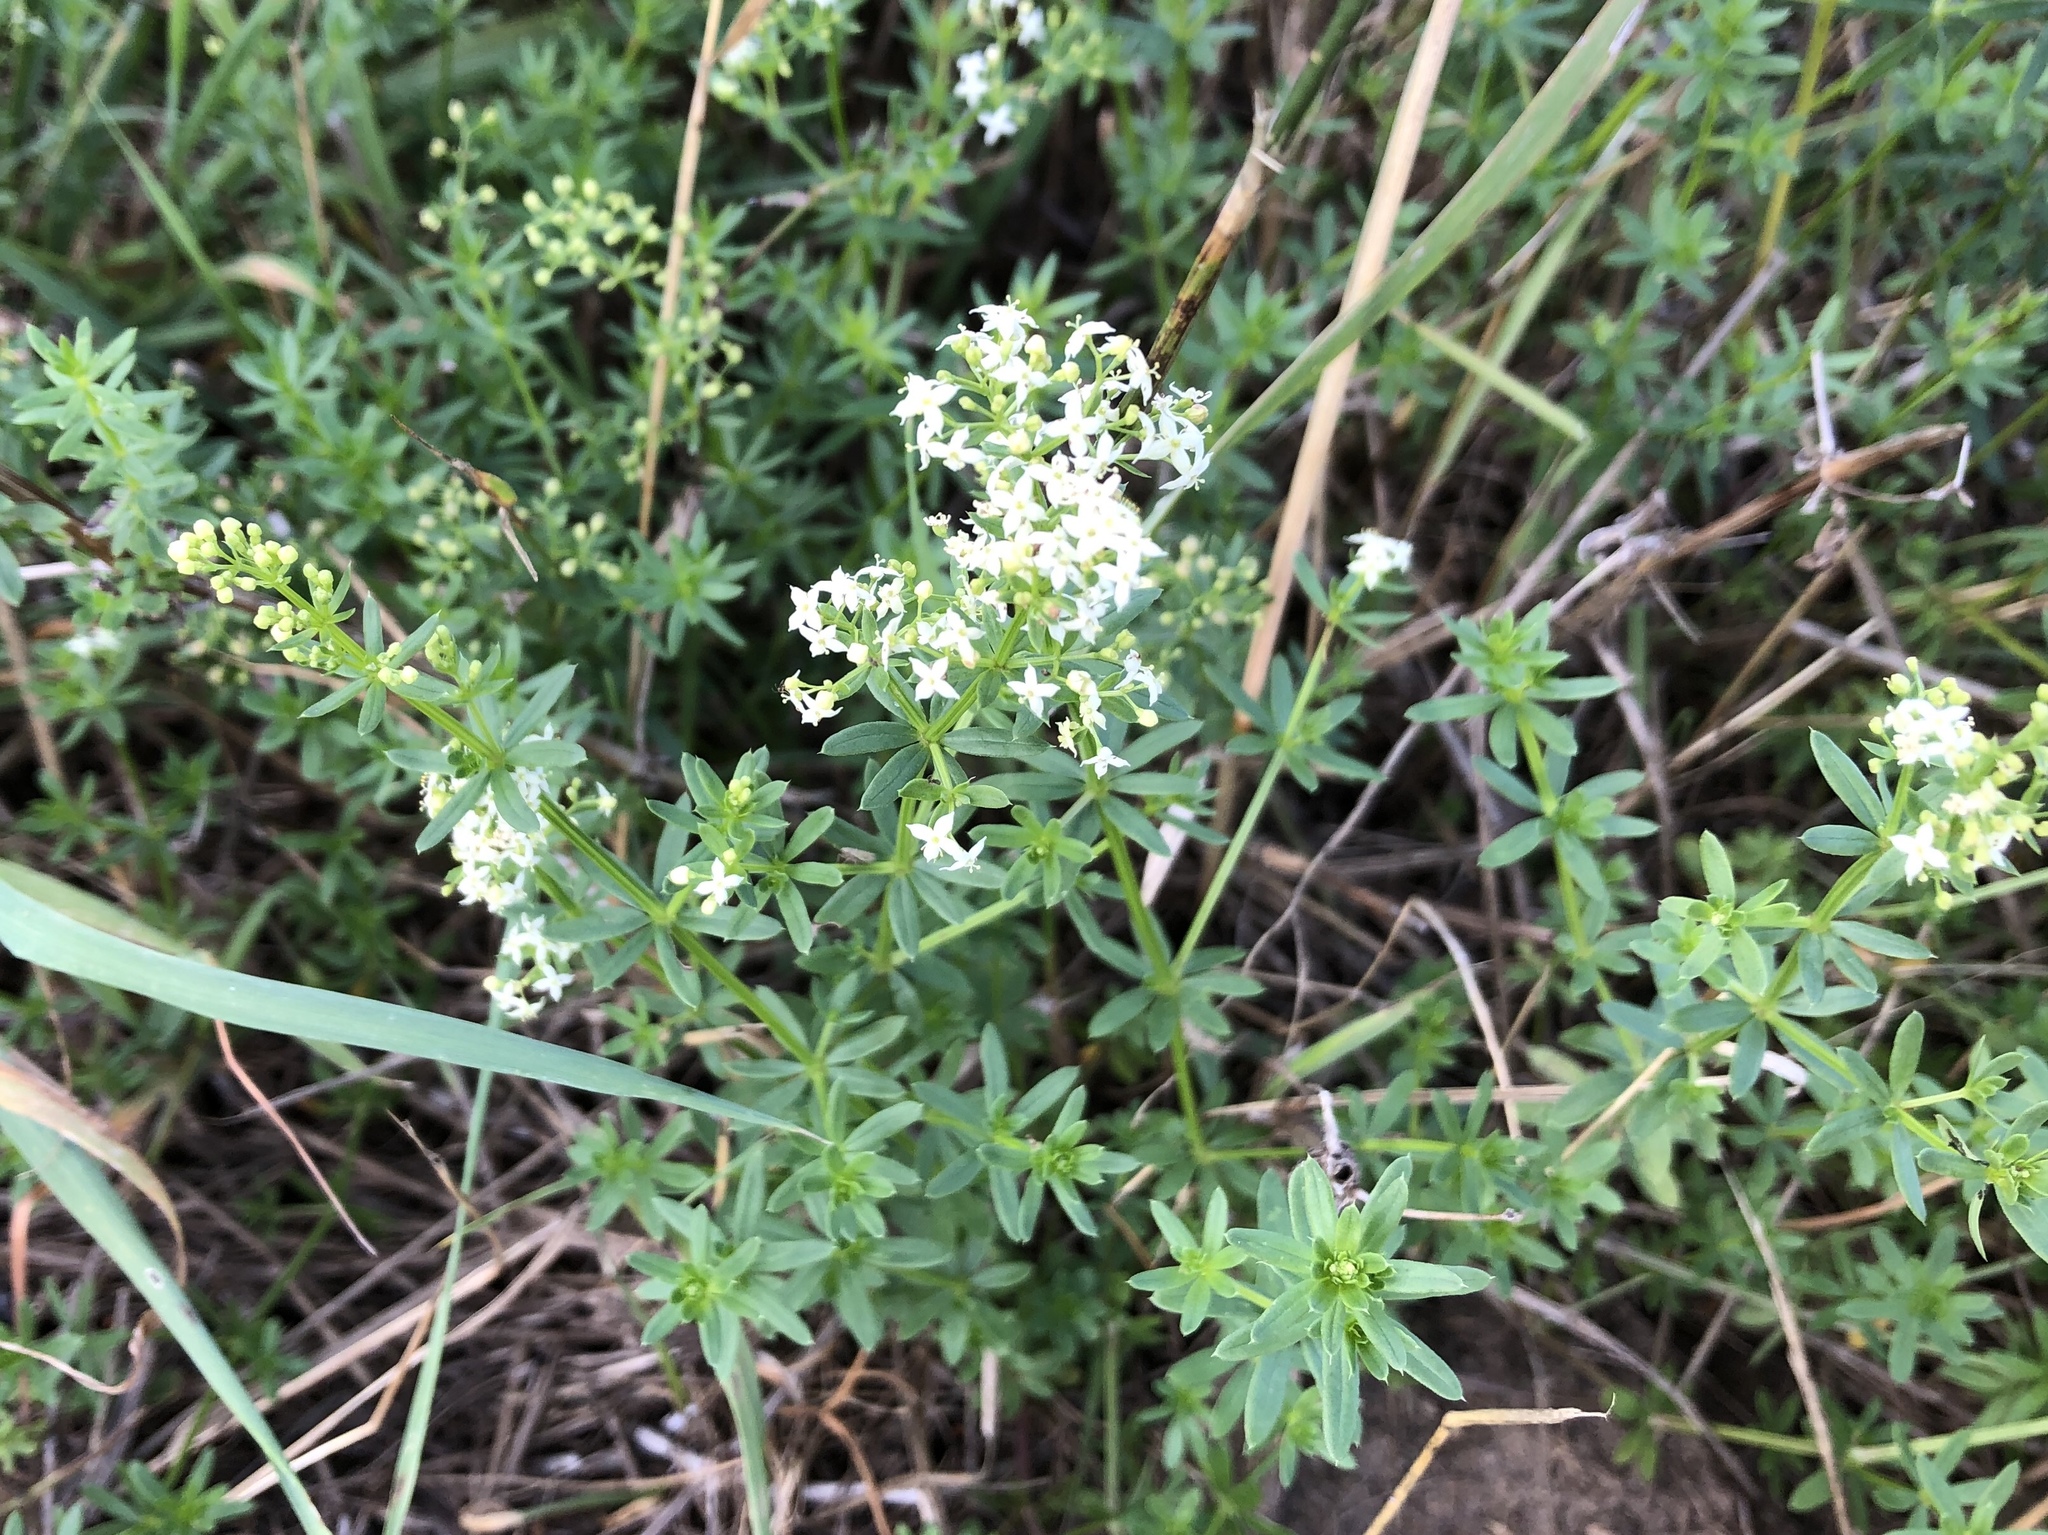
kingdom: Plantae
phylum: Tracheophyta
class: Magnoliopsida
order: Gentianales
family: Rubiaceae
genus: Galium
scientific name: Galium album
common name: White bedstraw
